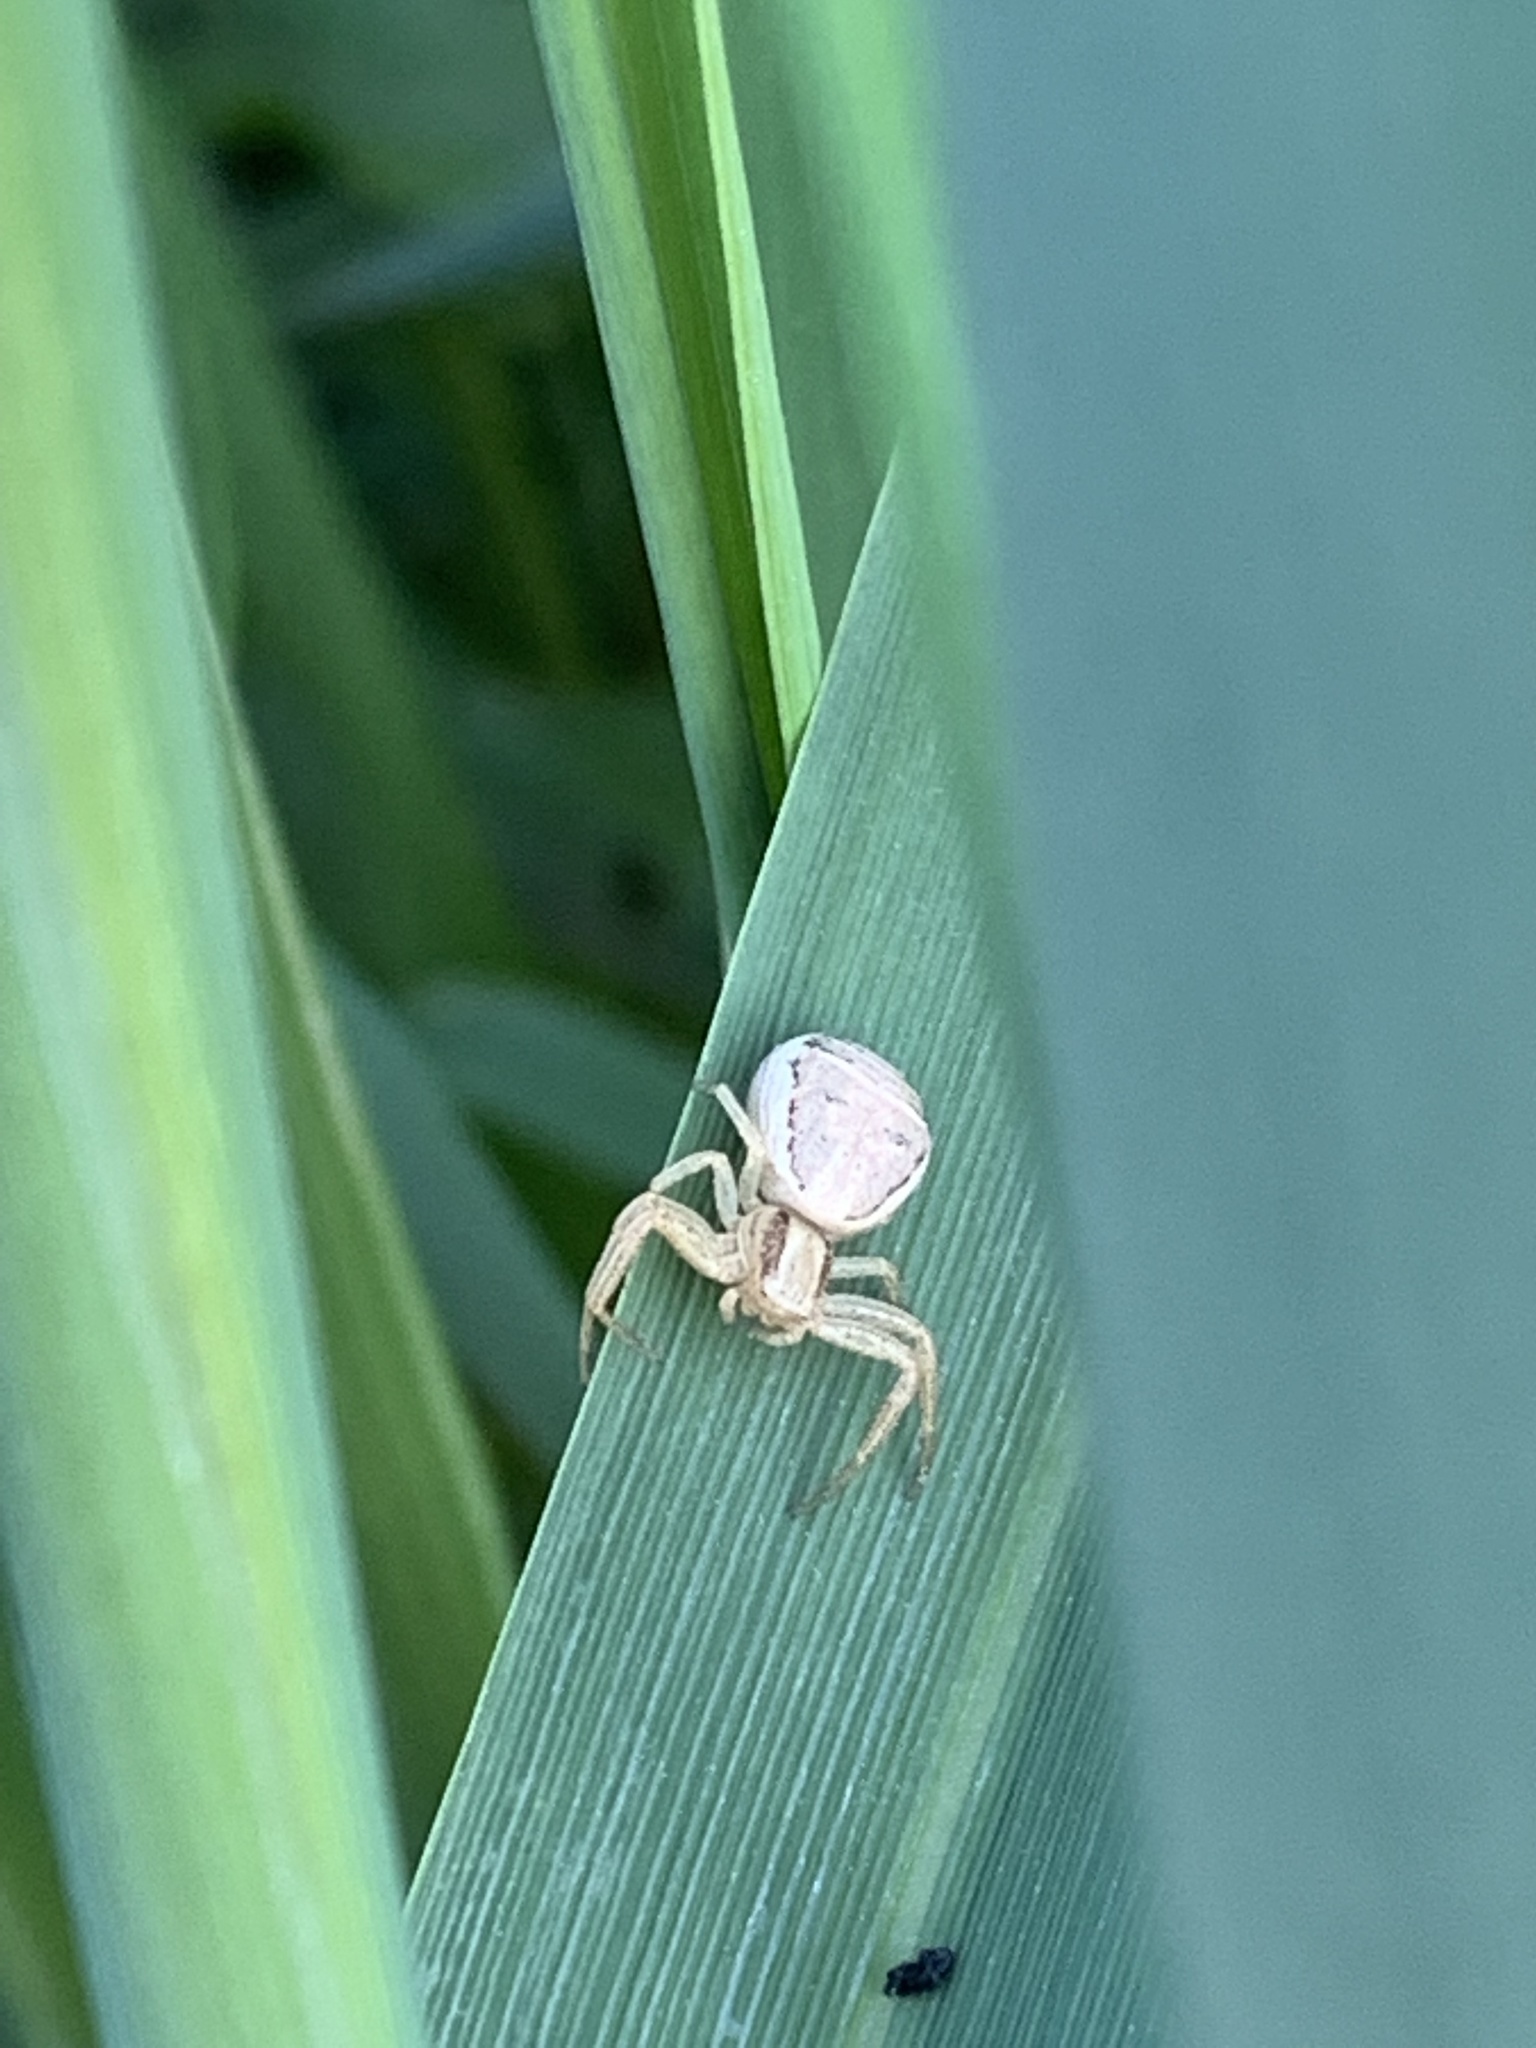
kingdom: Animalia
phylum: Arthropoda
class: Arachnida
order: Araneae
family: Thomisidae
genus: Xysticus
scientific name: Xysticus ulmi
